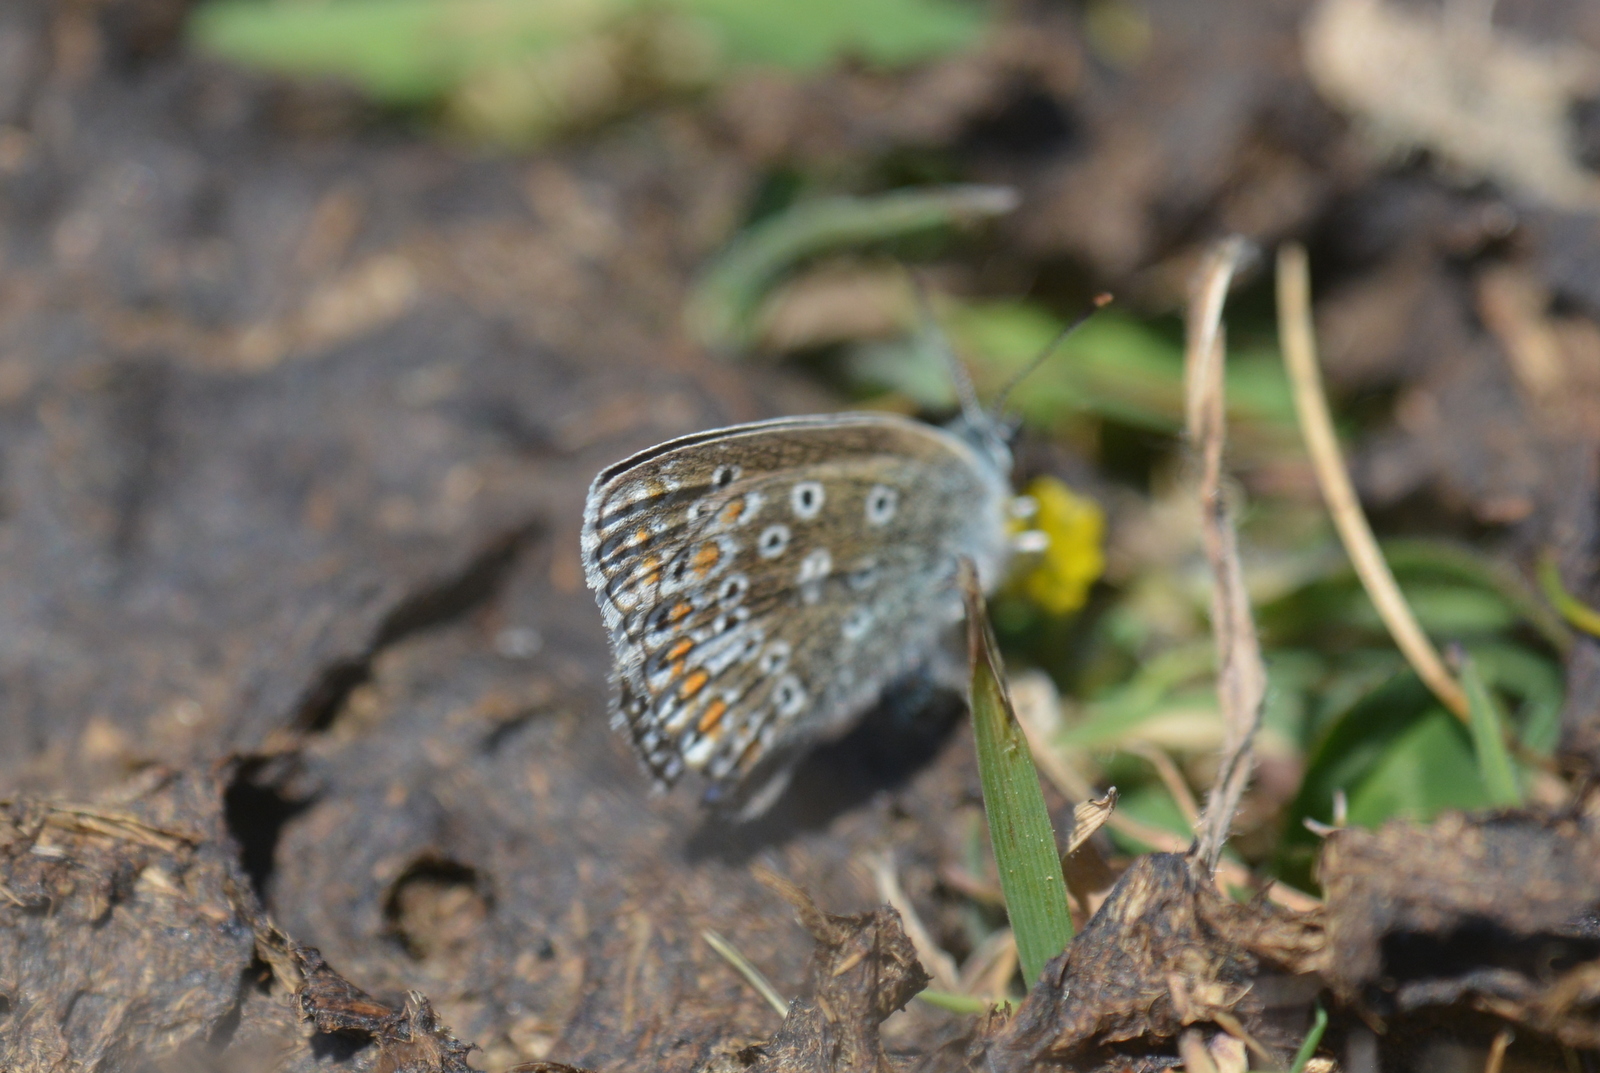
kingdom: Animalia
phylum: Arthropoda
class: Insecta
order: Lepidoptera
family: Lycaenidae
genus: Polyommatus
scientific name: Polyommatus icarus
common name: Common blue
